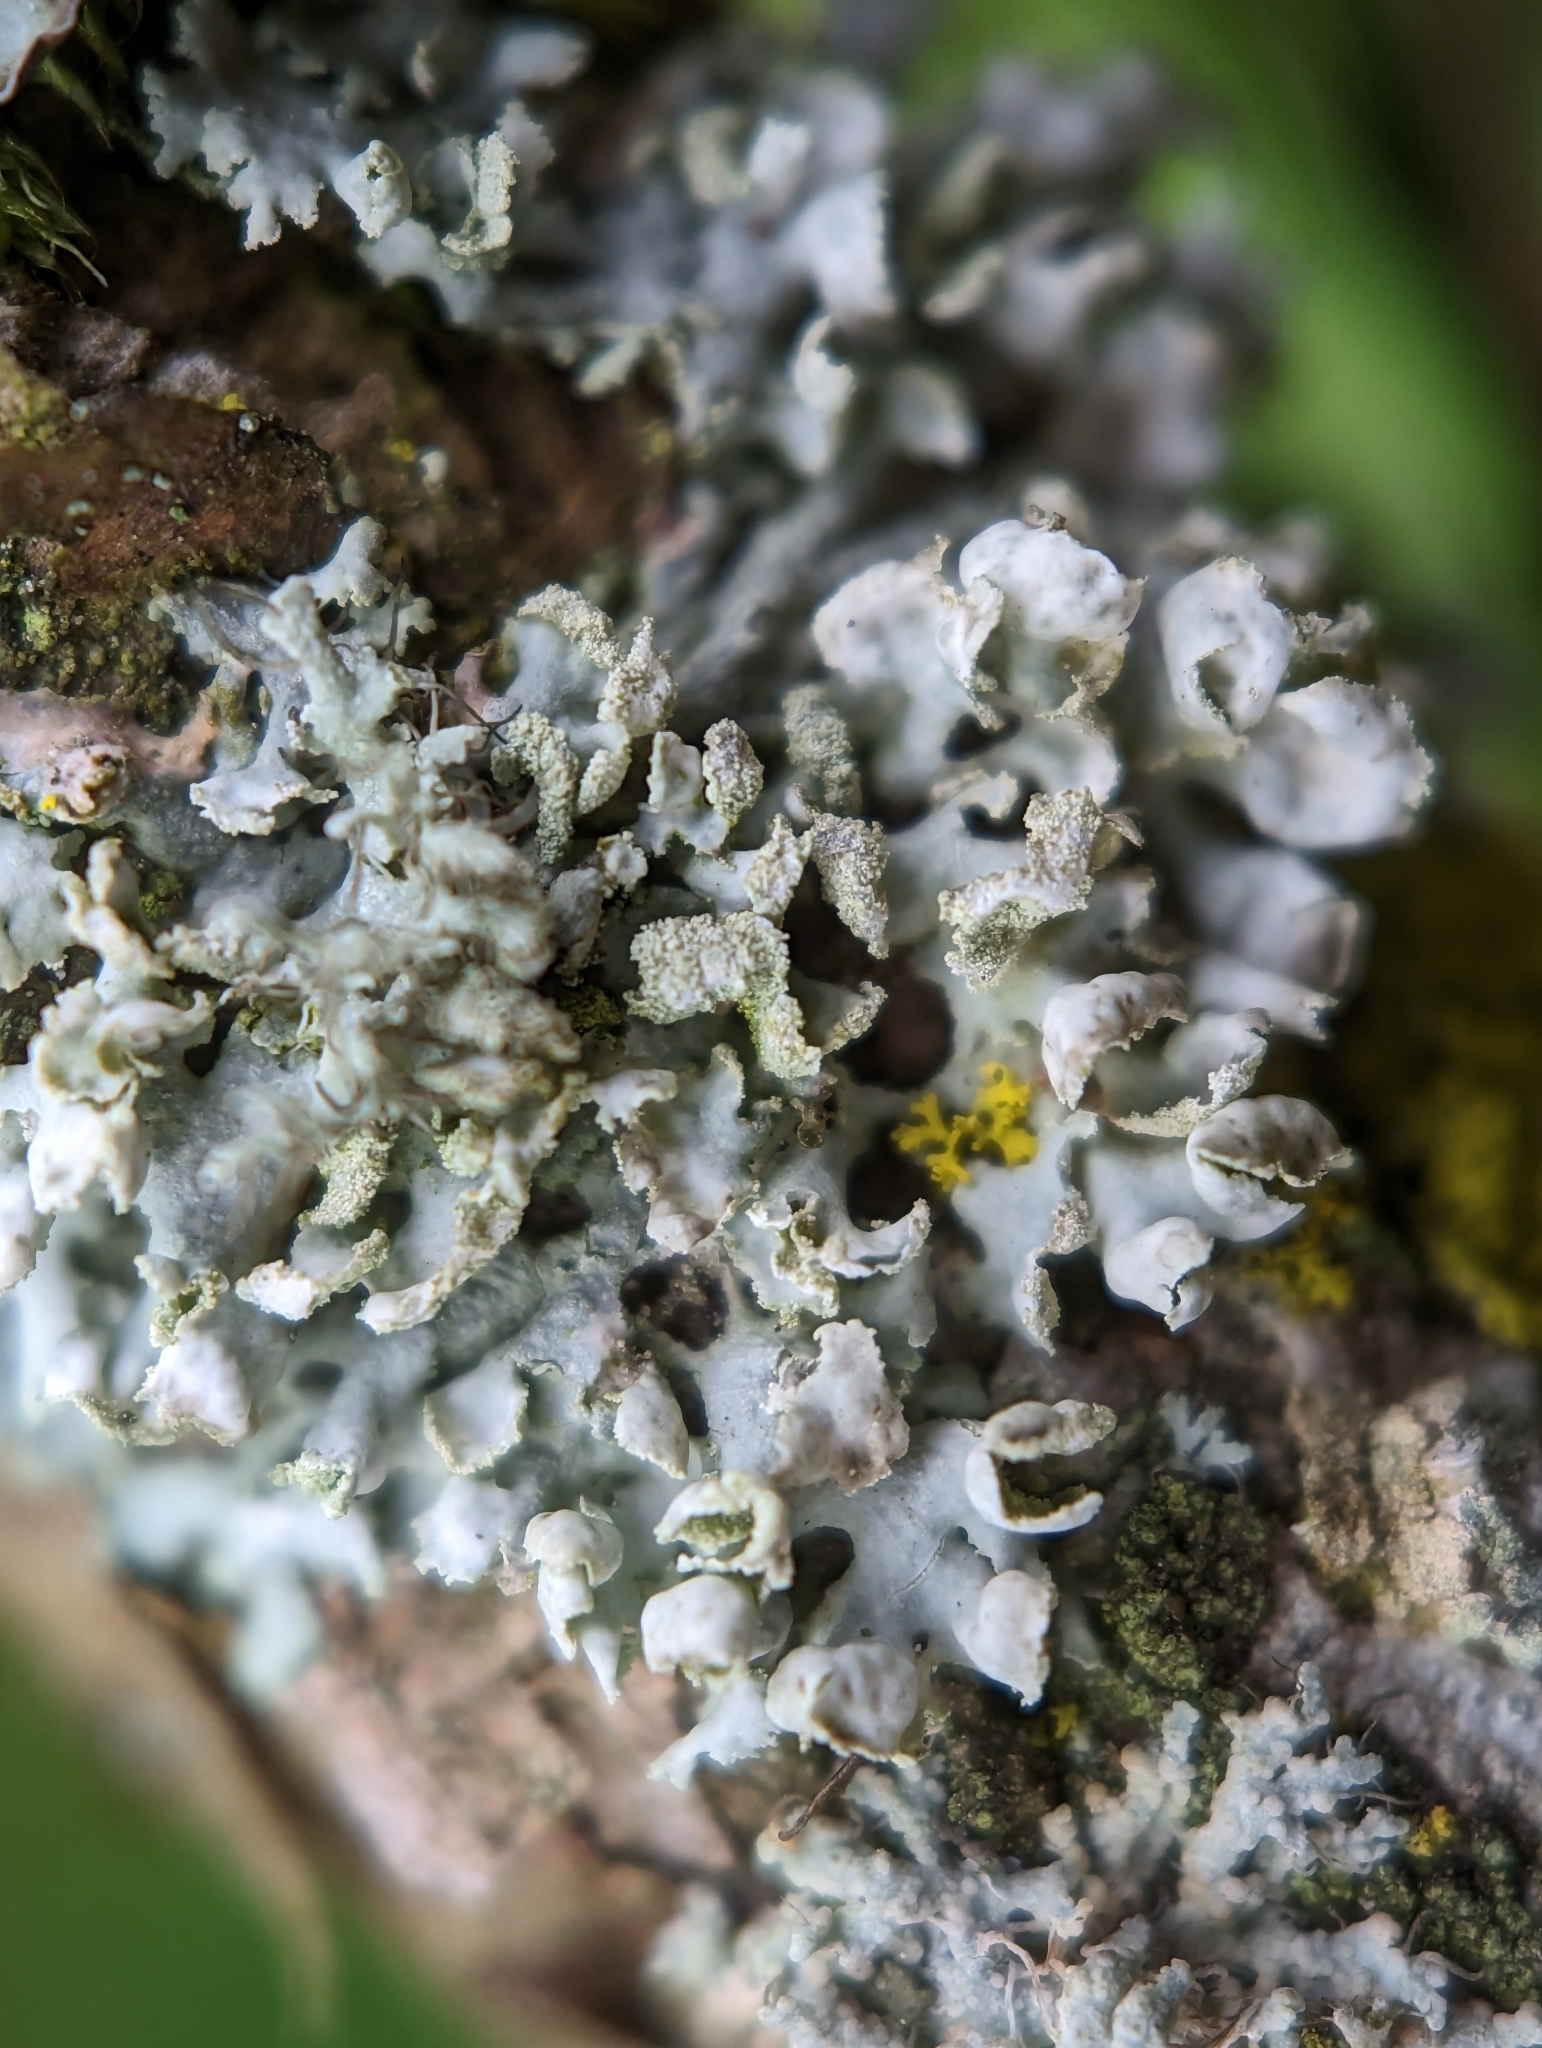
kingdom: Fungi
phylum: Ascomycota
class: Lecanoromycetes
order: Caliciales
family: Physciaceae
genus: Physcia
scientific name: Physcia adscendens
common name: Hooded rosette lichen
